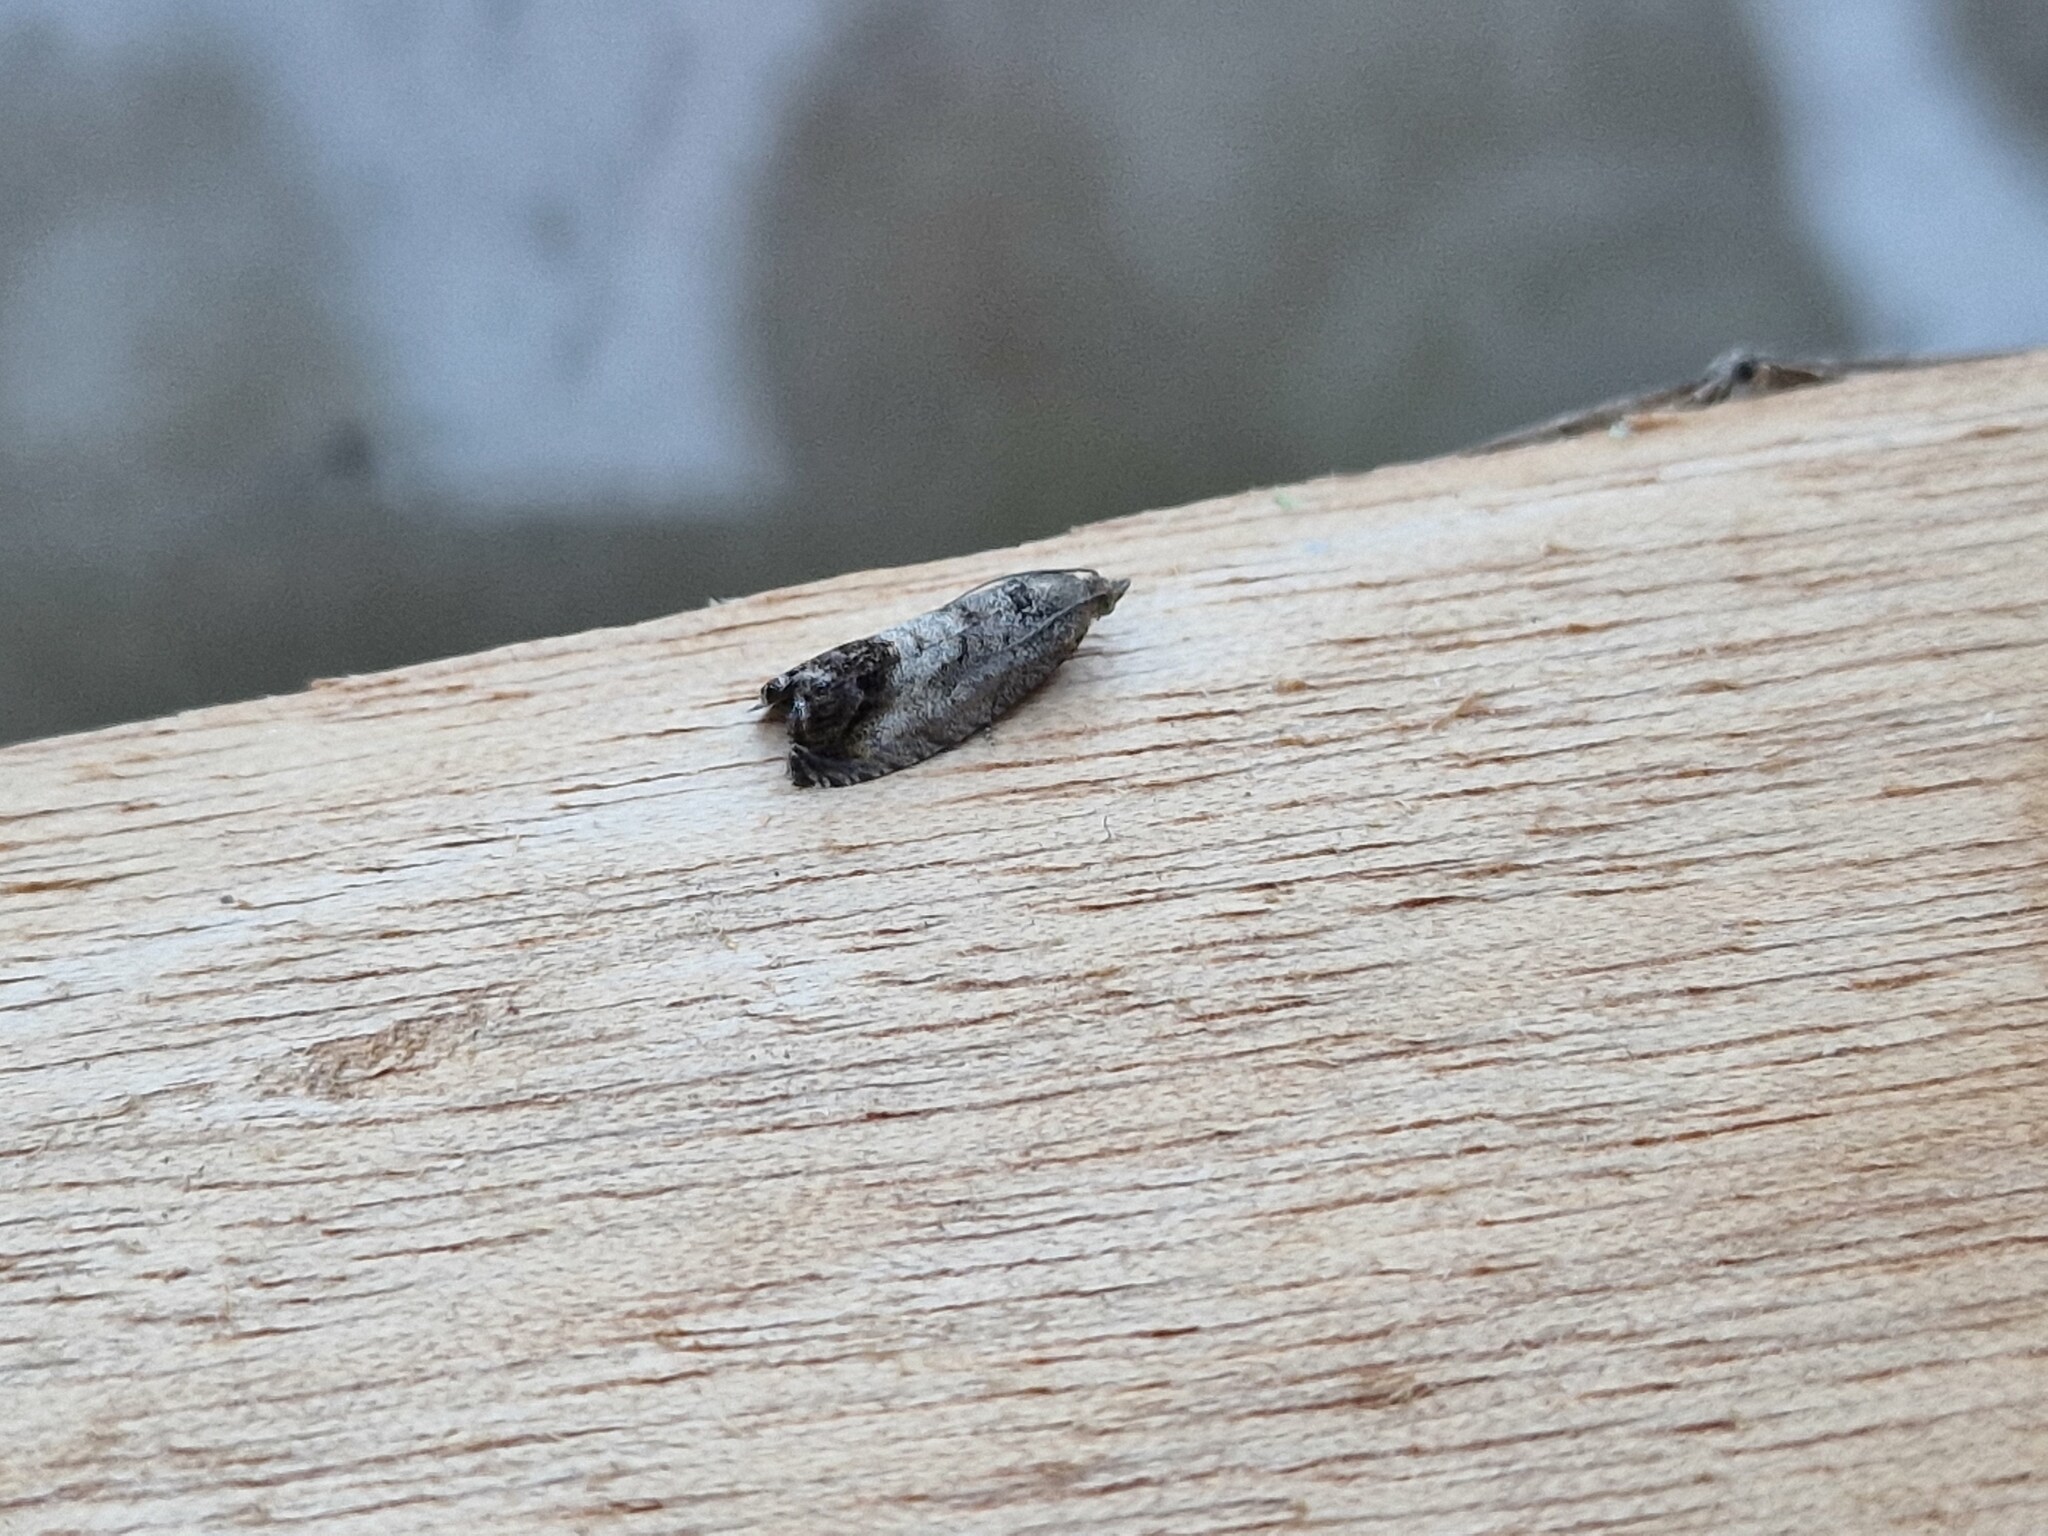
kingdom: Animalia
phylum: Arthropoda
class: Insecta
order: Lepidoptera
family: Tortricidae
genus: Cydia
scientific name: Cydia splendana
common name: De: kastanienwickler, eichenwickler es: oruga de la castaña fr: carpocapse des châtaignes it: cidia o tortrice tardiva delle castagne pt: bichado das castanhas gb: acorn moth, chestnut fruit tortrix
